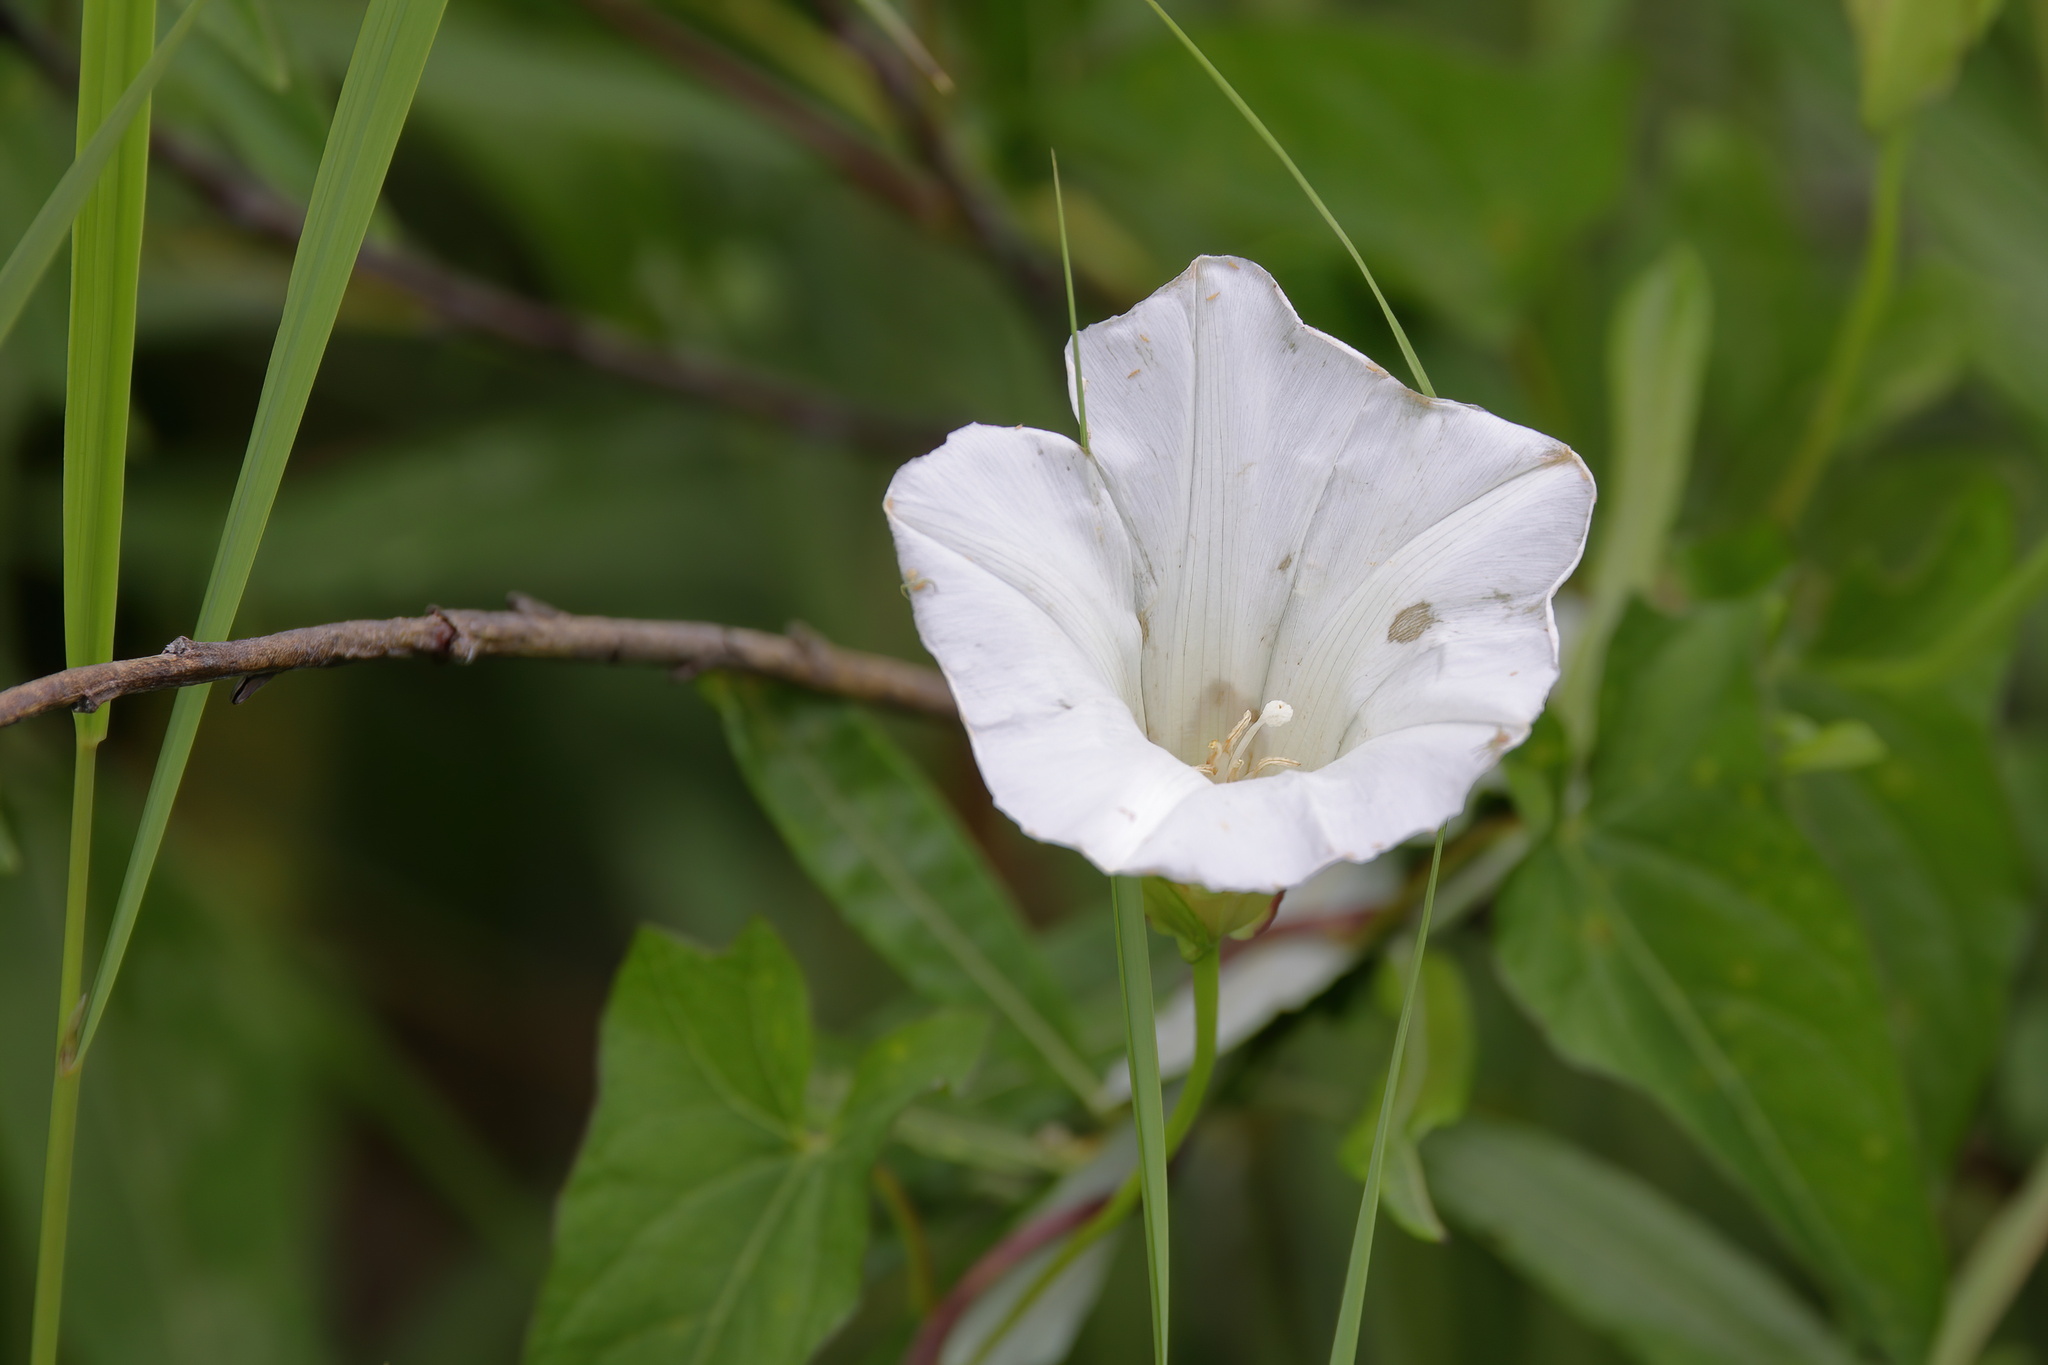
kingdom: Plantae
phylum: Tracheophyta
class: Magnoliopsida
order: Solanales
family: Convolvulaceae
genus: Calystegia
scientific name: Calystegia sepium
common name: Hedge bindweed
